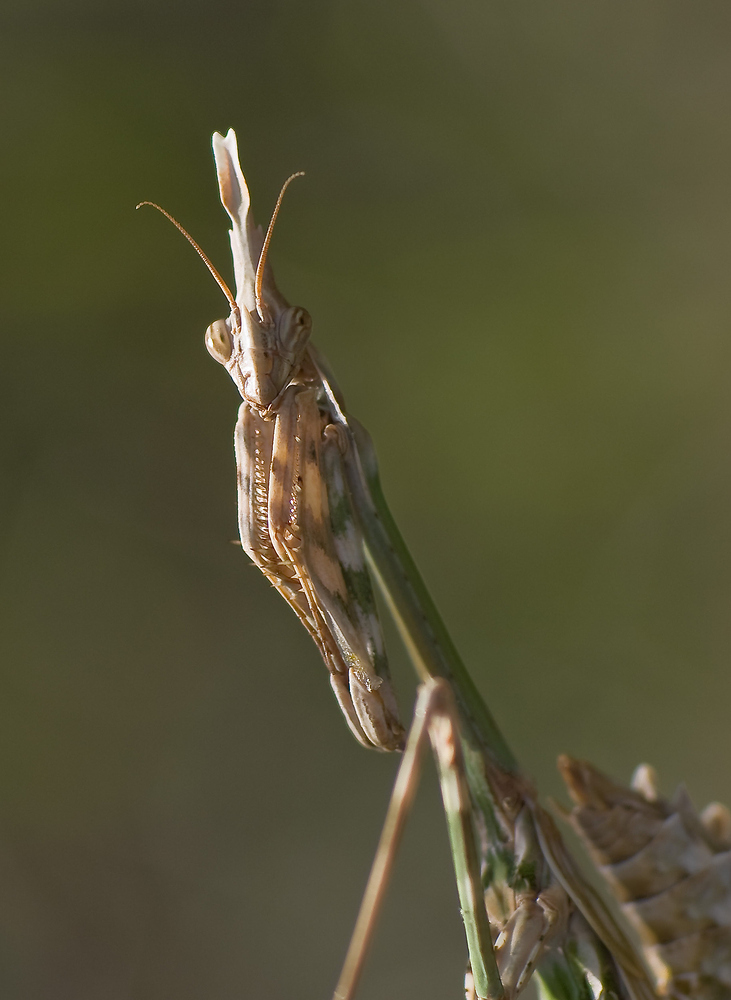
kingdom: Animalia
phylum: Arthropoda
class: Insecta
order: Mantodea
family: Empusidae
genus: Empusa
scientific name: Empusa pennata
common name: Conehead mantis
